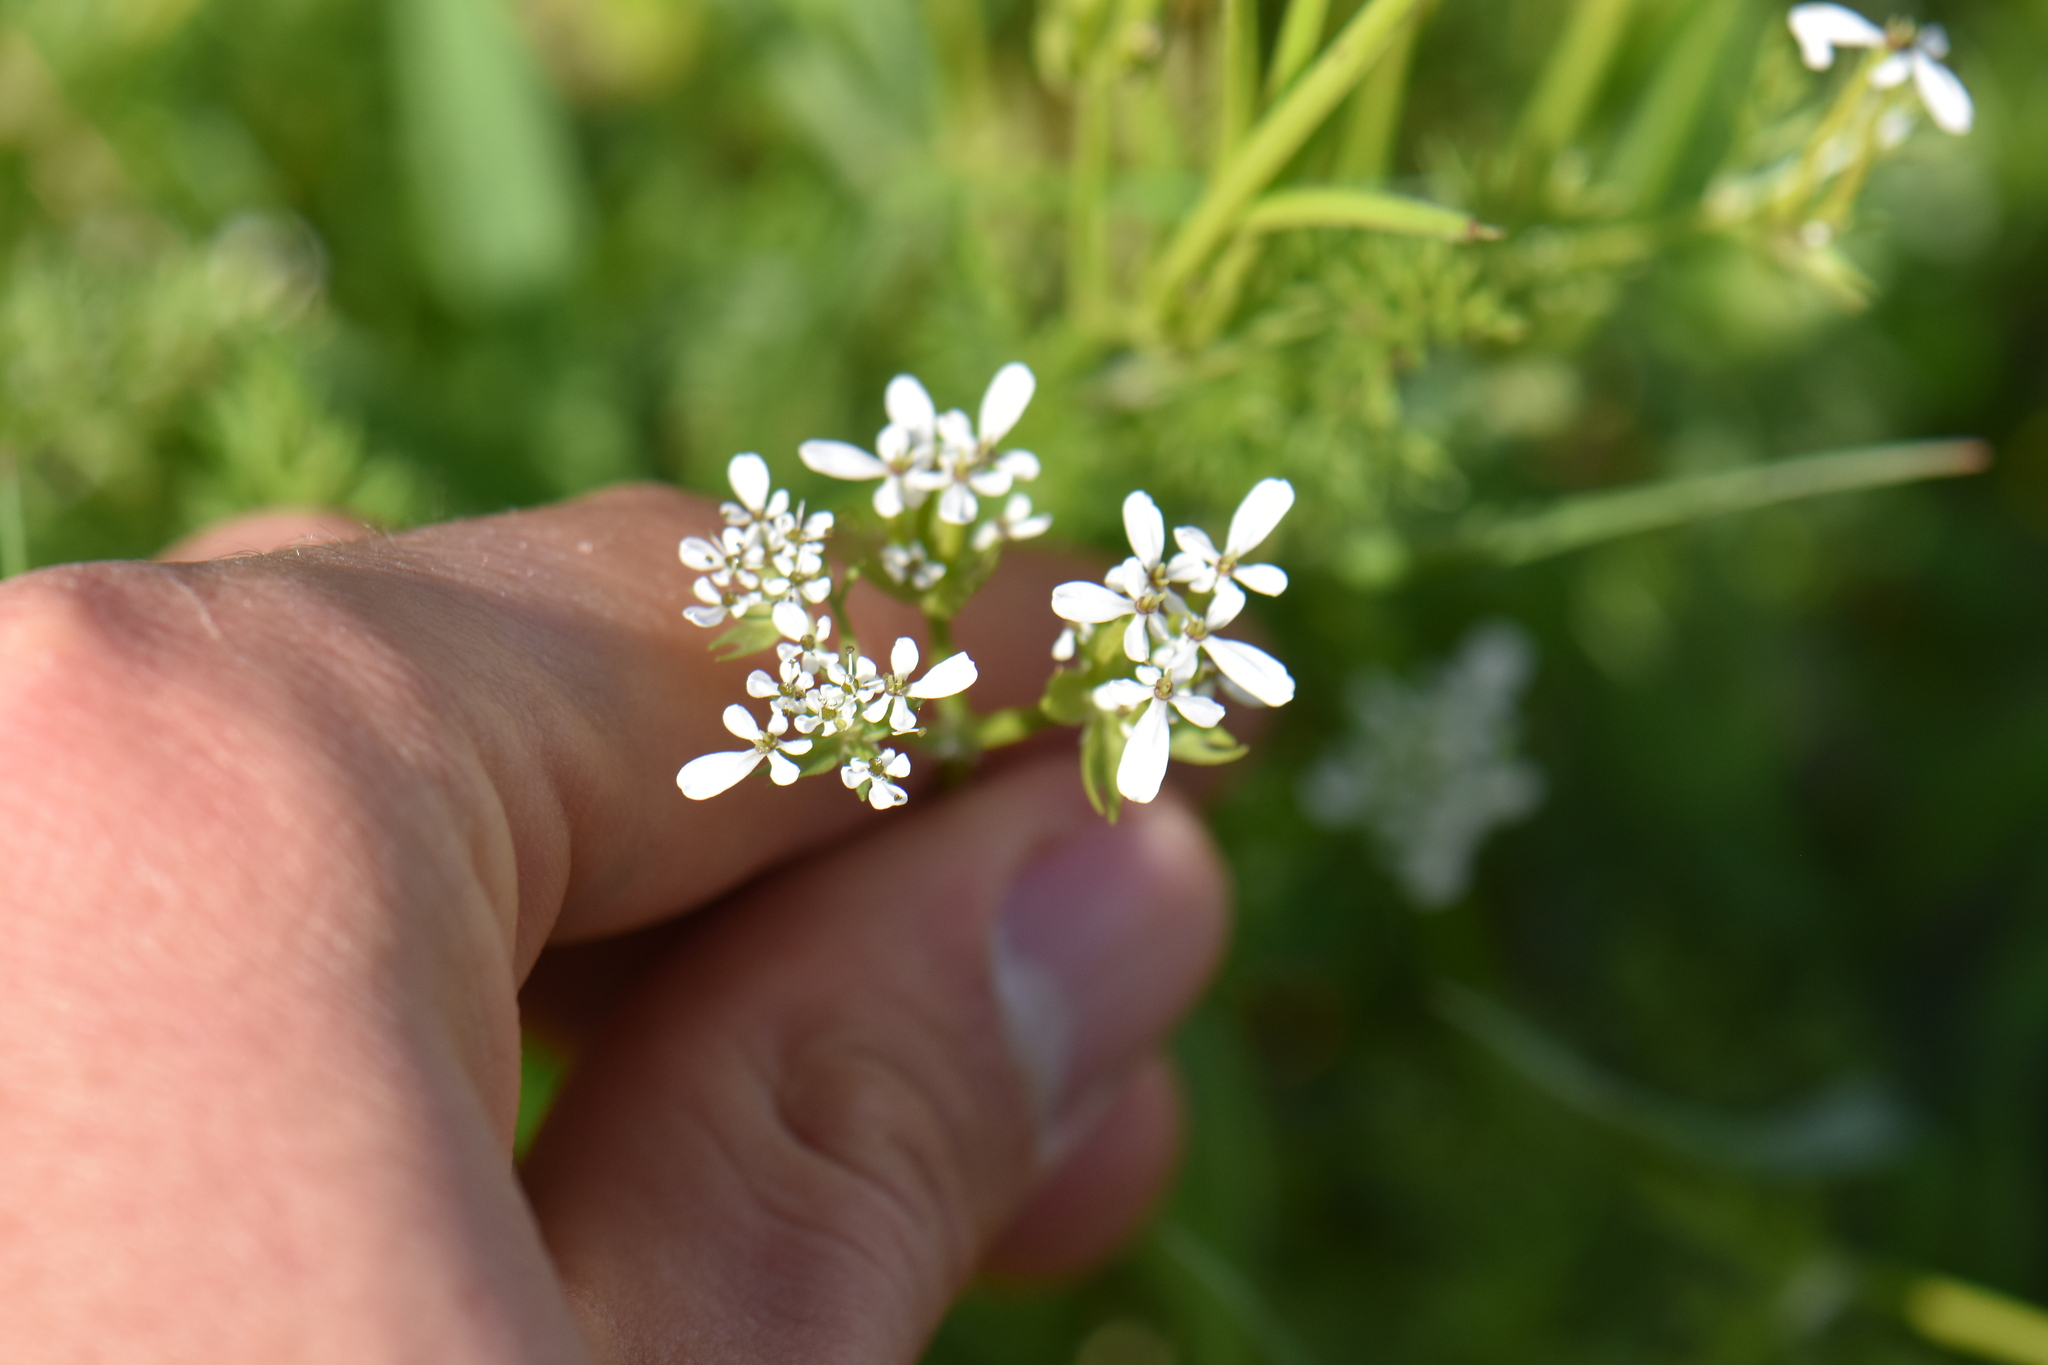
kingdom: Plantae
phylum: Tracheophyta
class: Magnoliopsida
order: Apiales
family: Apiaceae
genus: Scandix
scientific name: Scandix pecten-veneris
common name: Shepherd's-needle
